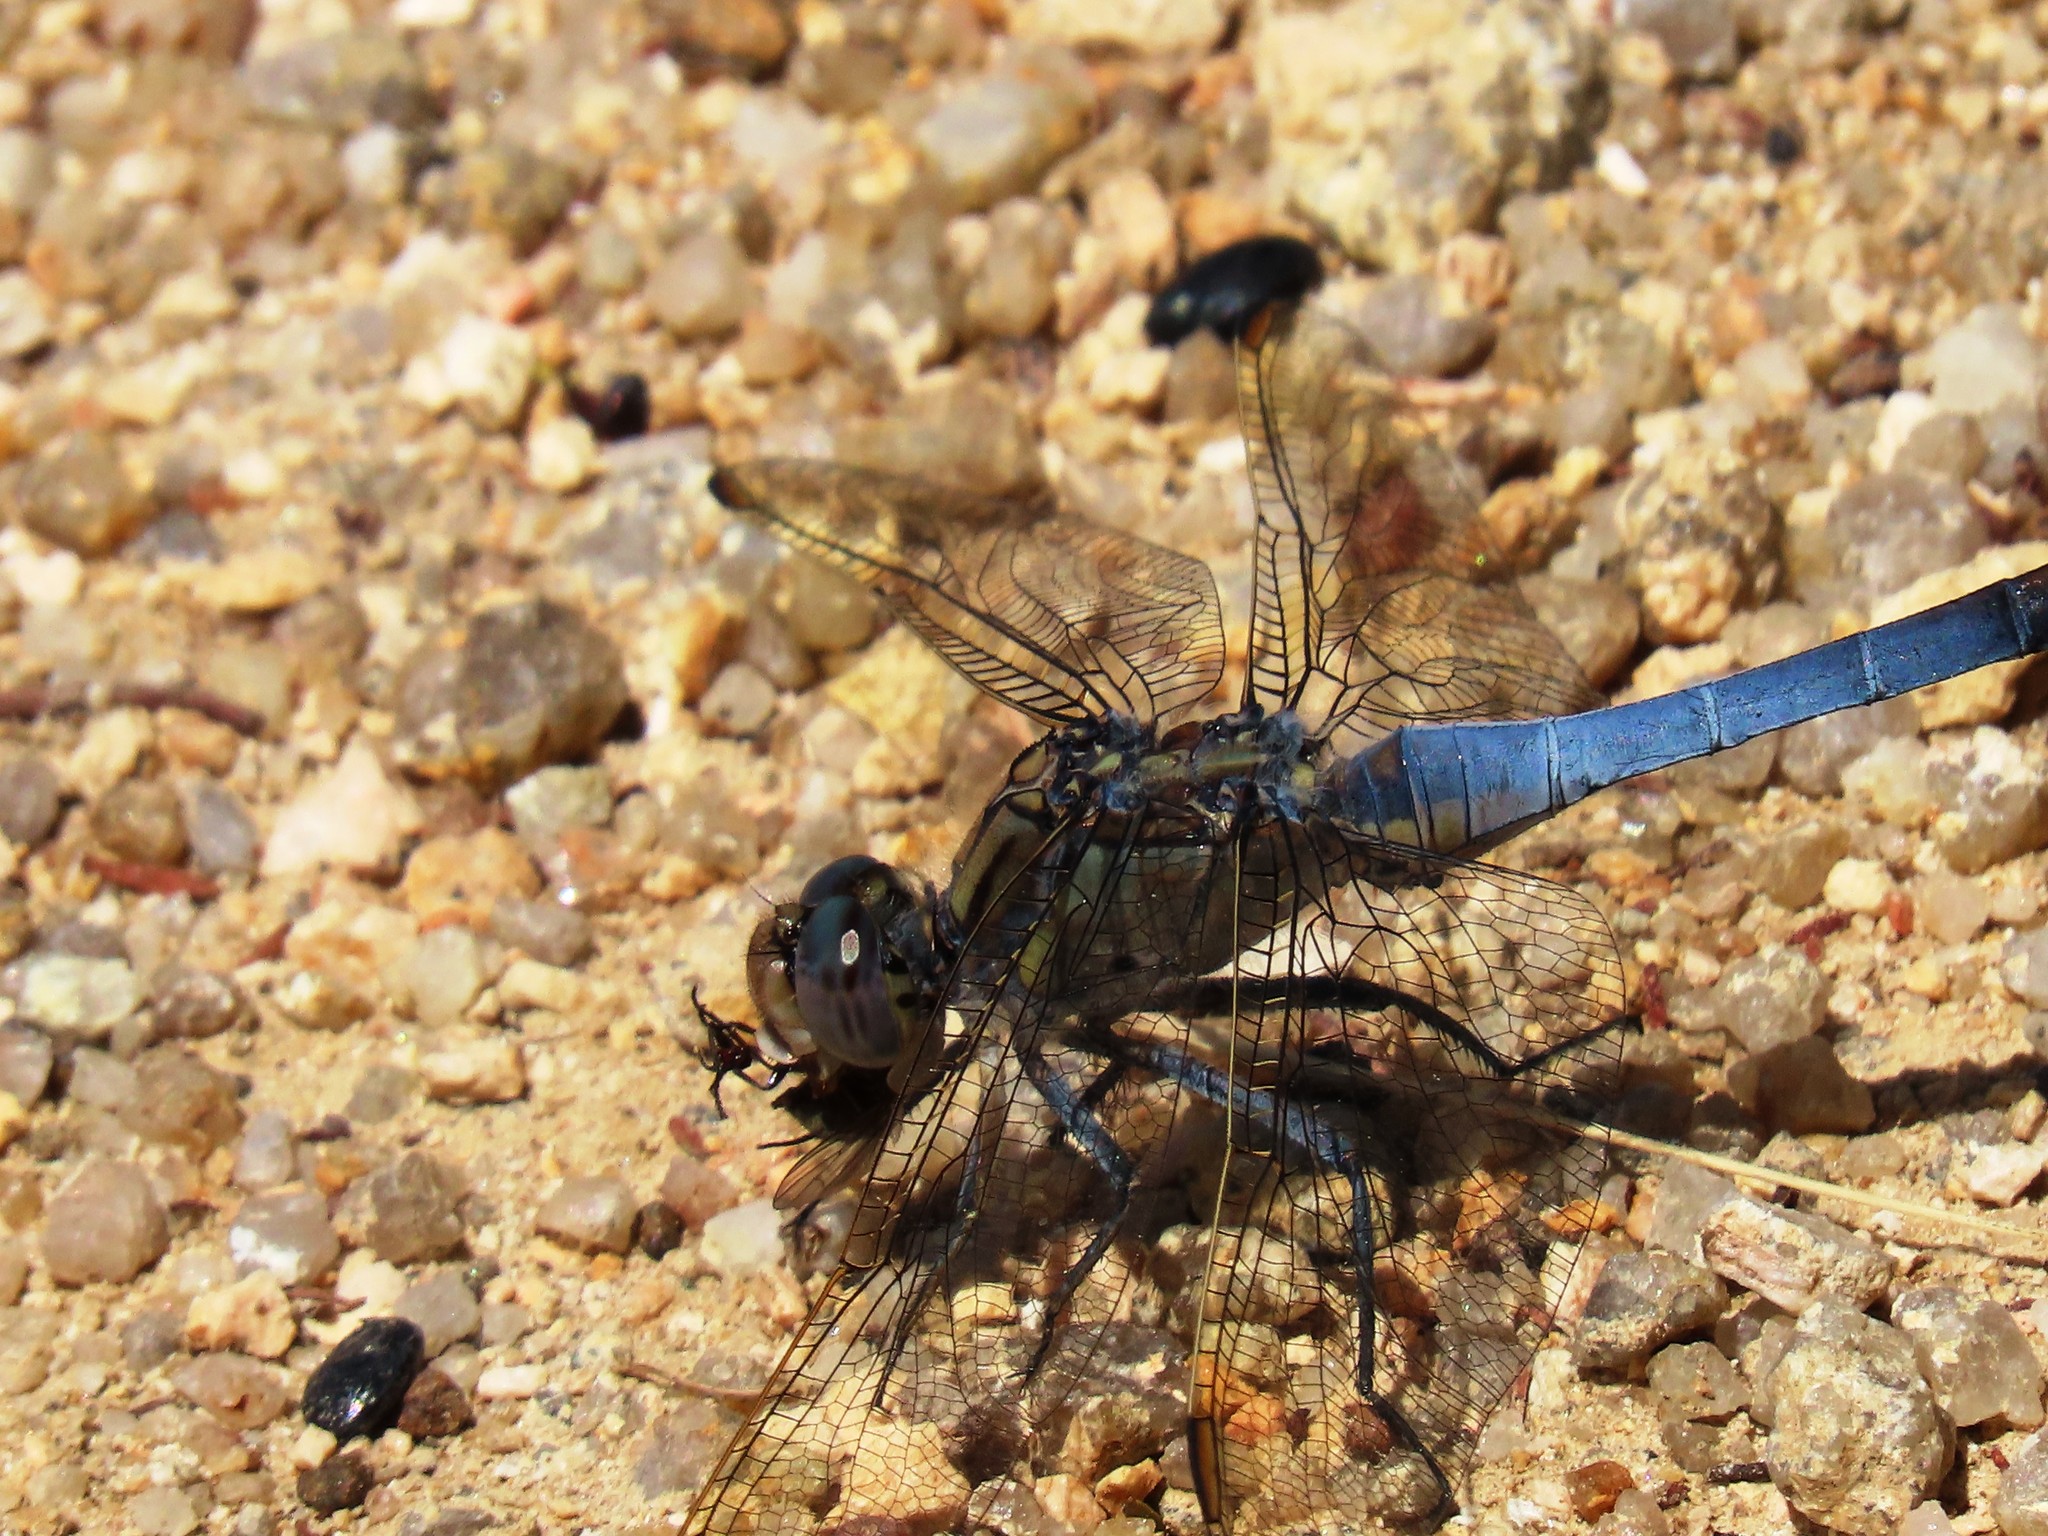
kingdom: Animalia
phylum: Arthropoda
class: Insecta
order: Odonata
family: Libellulidae
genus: Orthetrum
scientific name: Orthetrum caledonicum
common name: Blue skimmer
